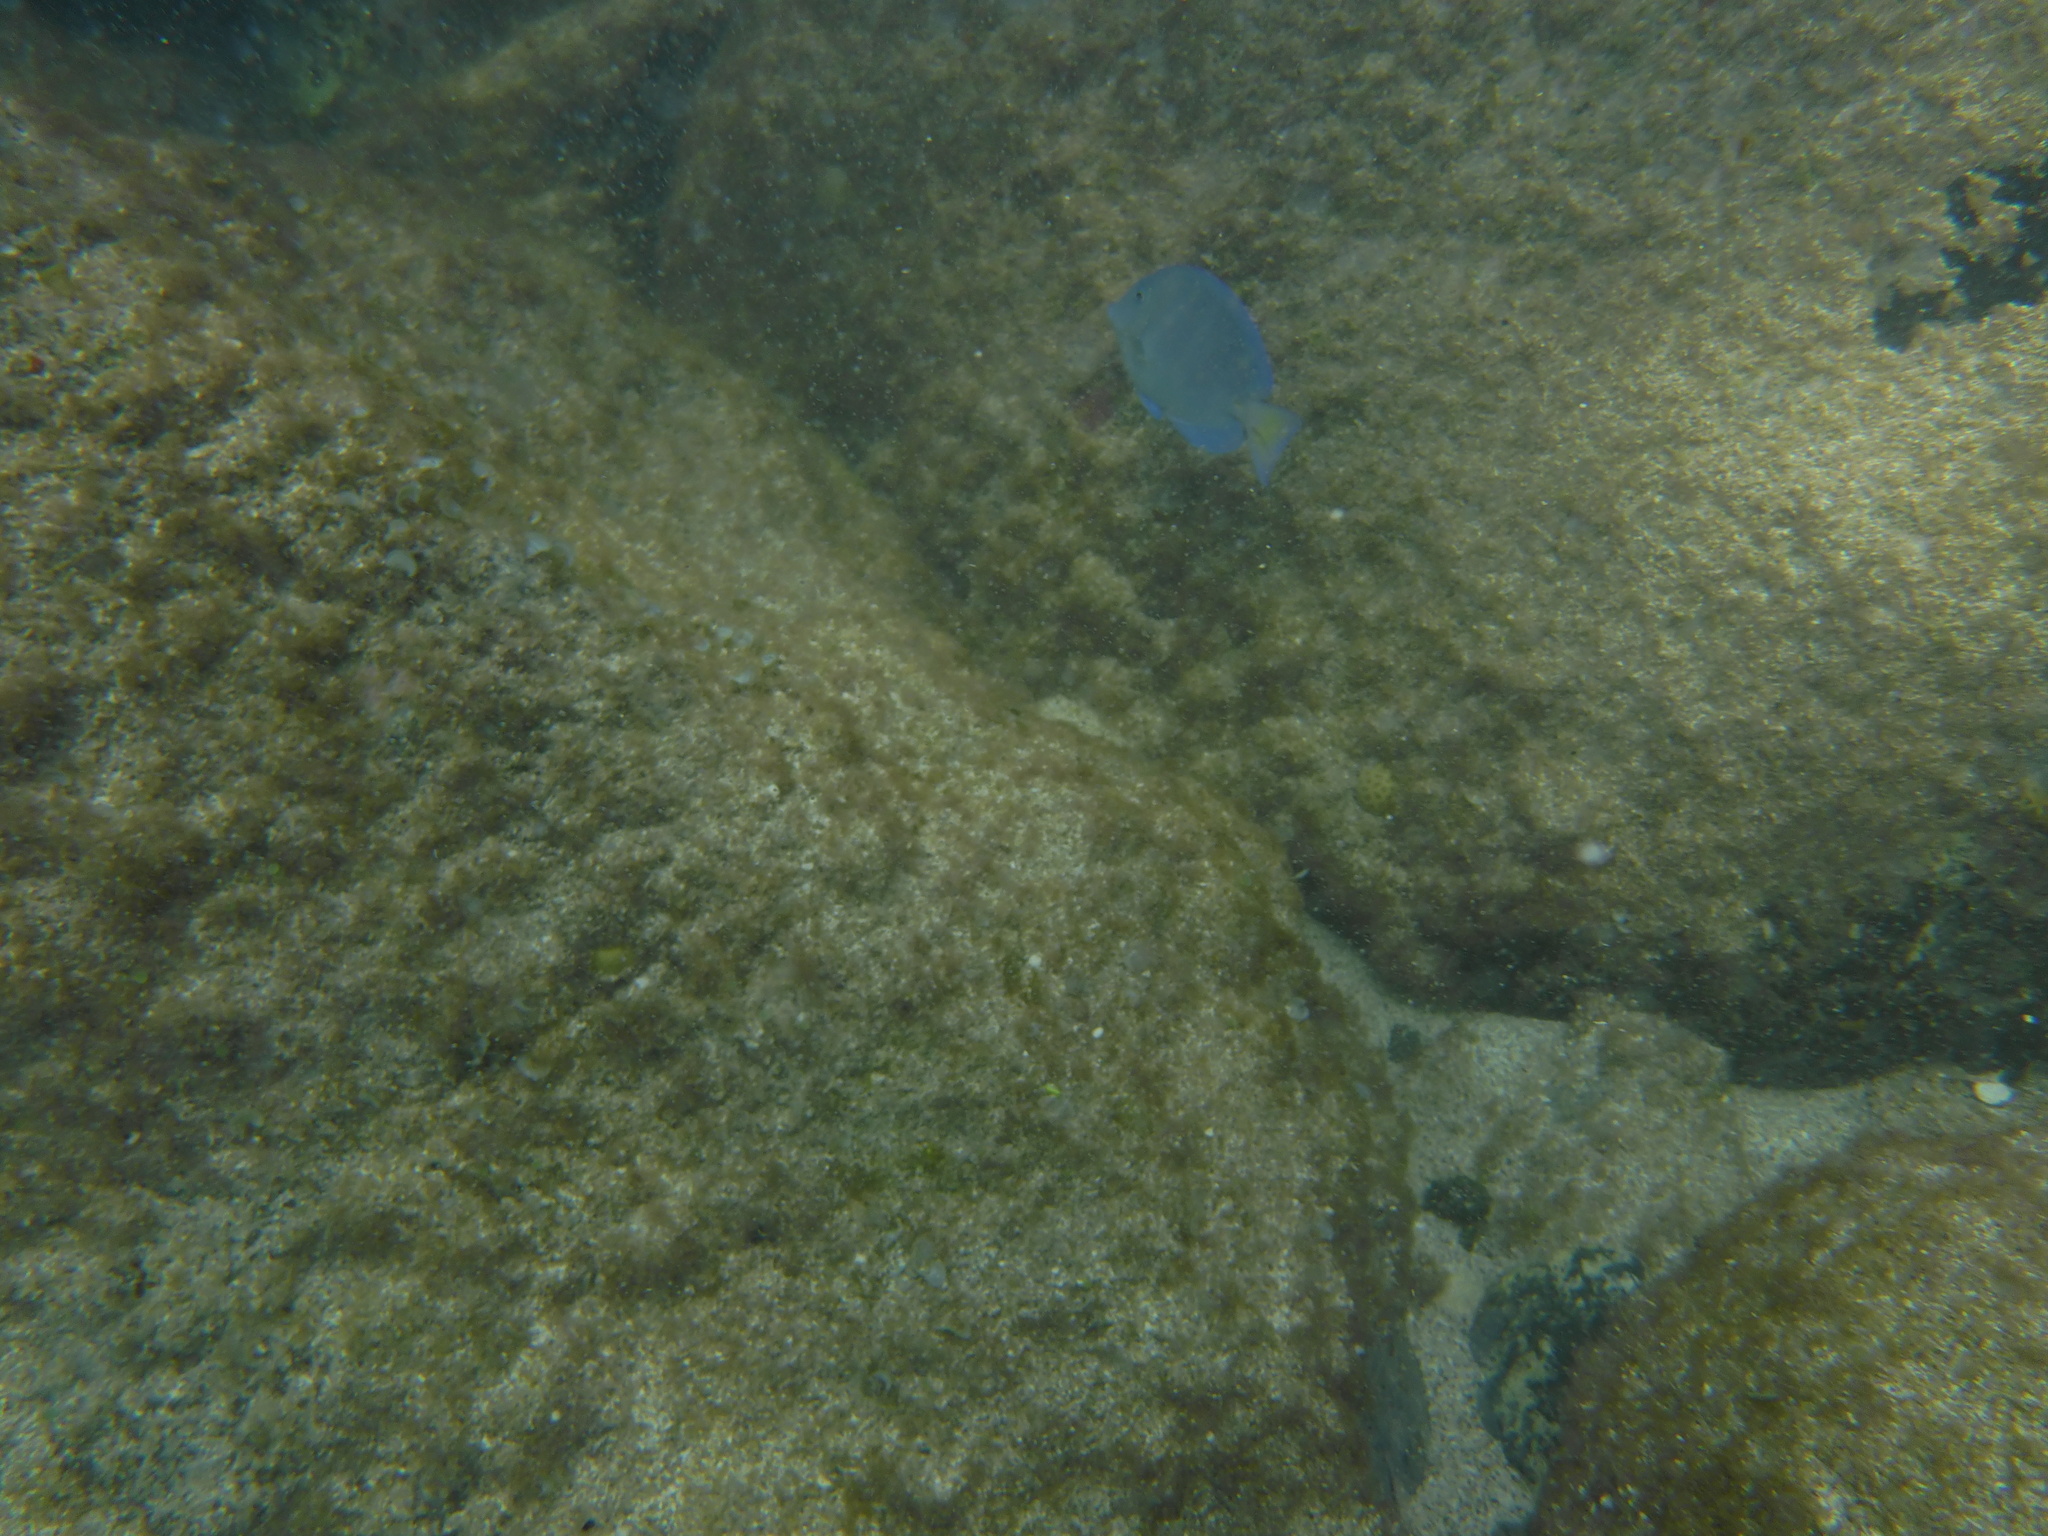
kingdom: Animalia
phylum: Chordata
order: Perciformes
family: Acanthuridae
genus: Acanthurus
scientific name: Acanthurus coeruleus
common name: Blue tang
